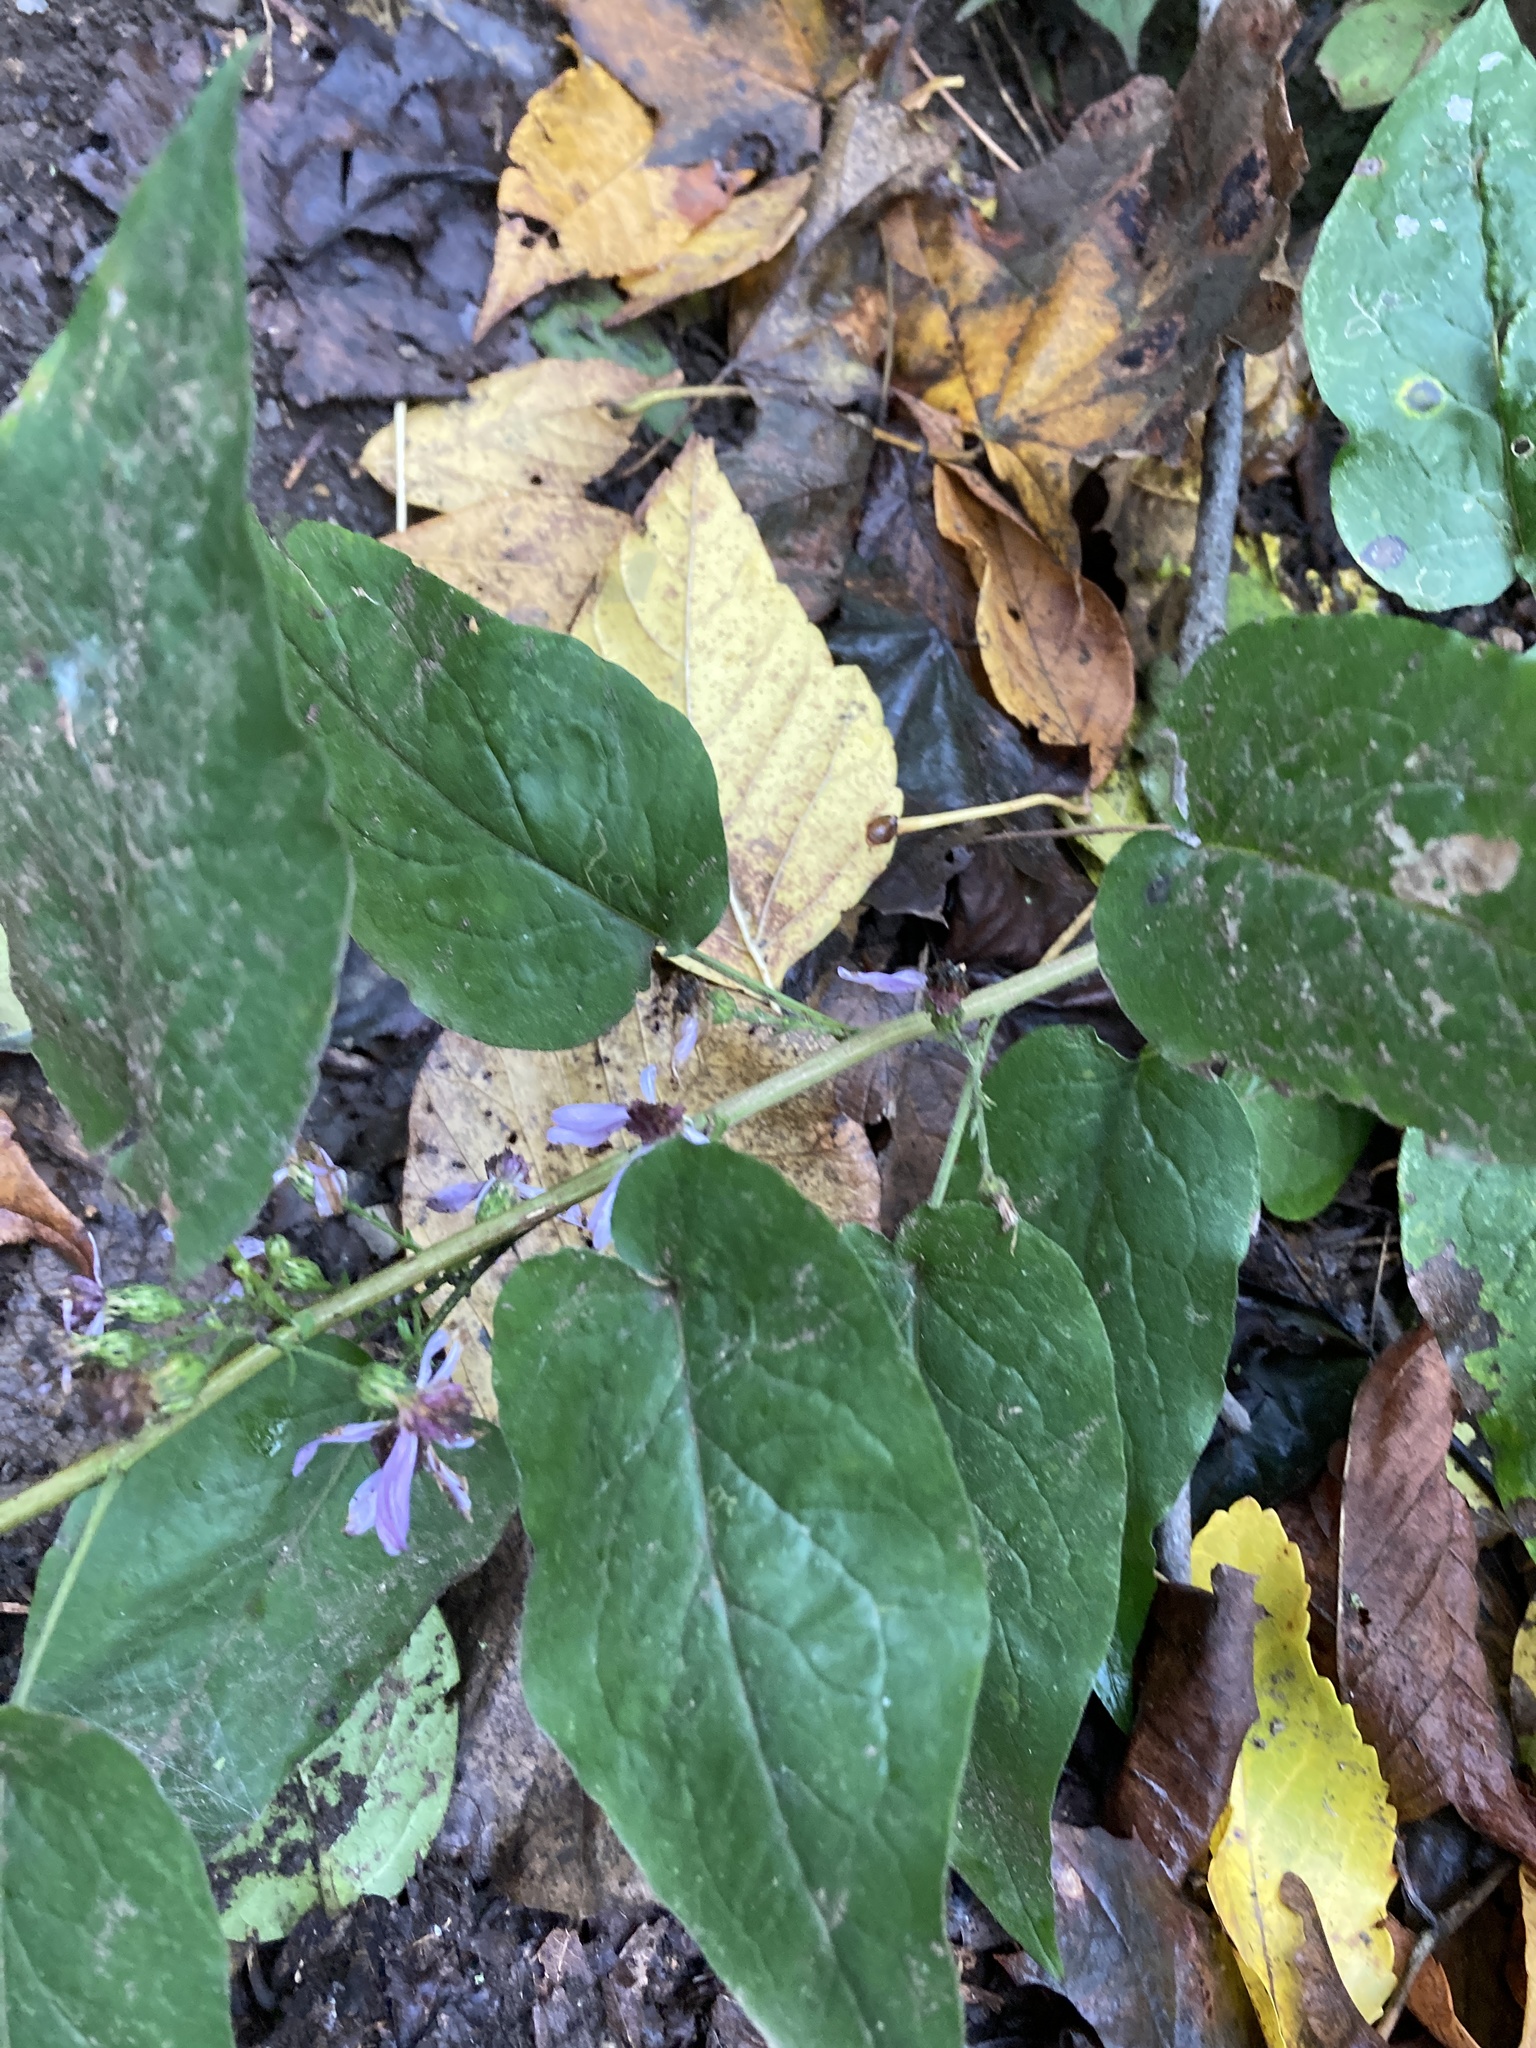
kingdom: Plantae
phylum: Tracheophyta
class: Magnoliopsida
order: Asterales
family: Asteraceae
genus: Symphyotrichum
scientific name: Symphyotrichum shortii
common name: Short's aster
